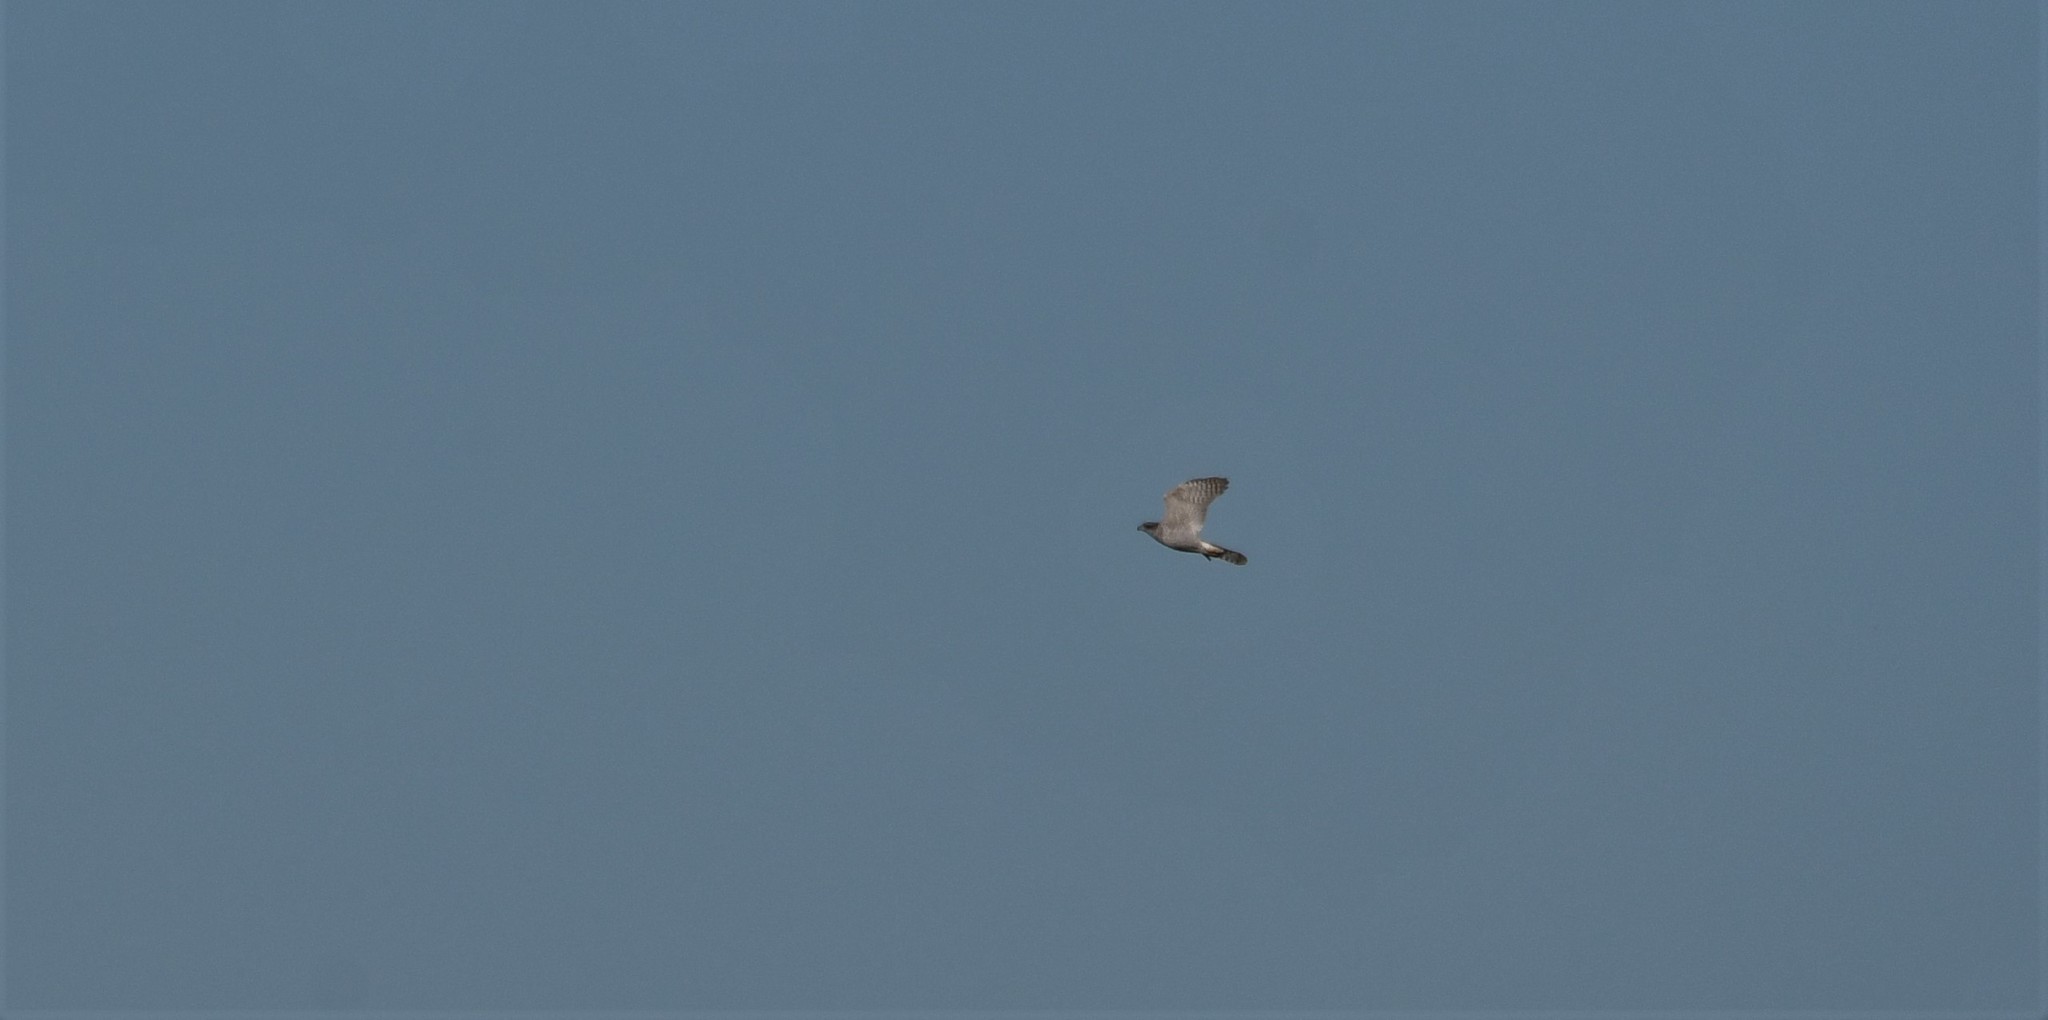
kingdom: Animalia
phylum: Chordata
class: Aves
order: Accipitriformes
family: Accipitridae
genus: Accipiter
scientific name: Accipiter gentilis
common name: Northern goshawk
